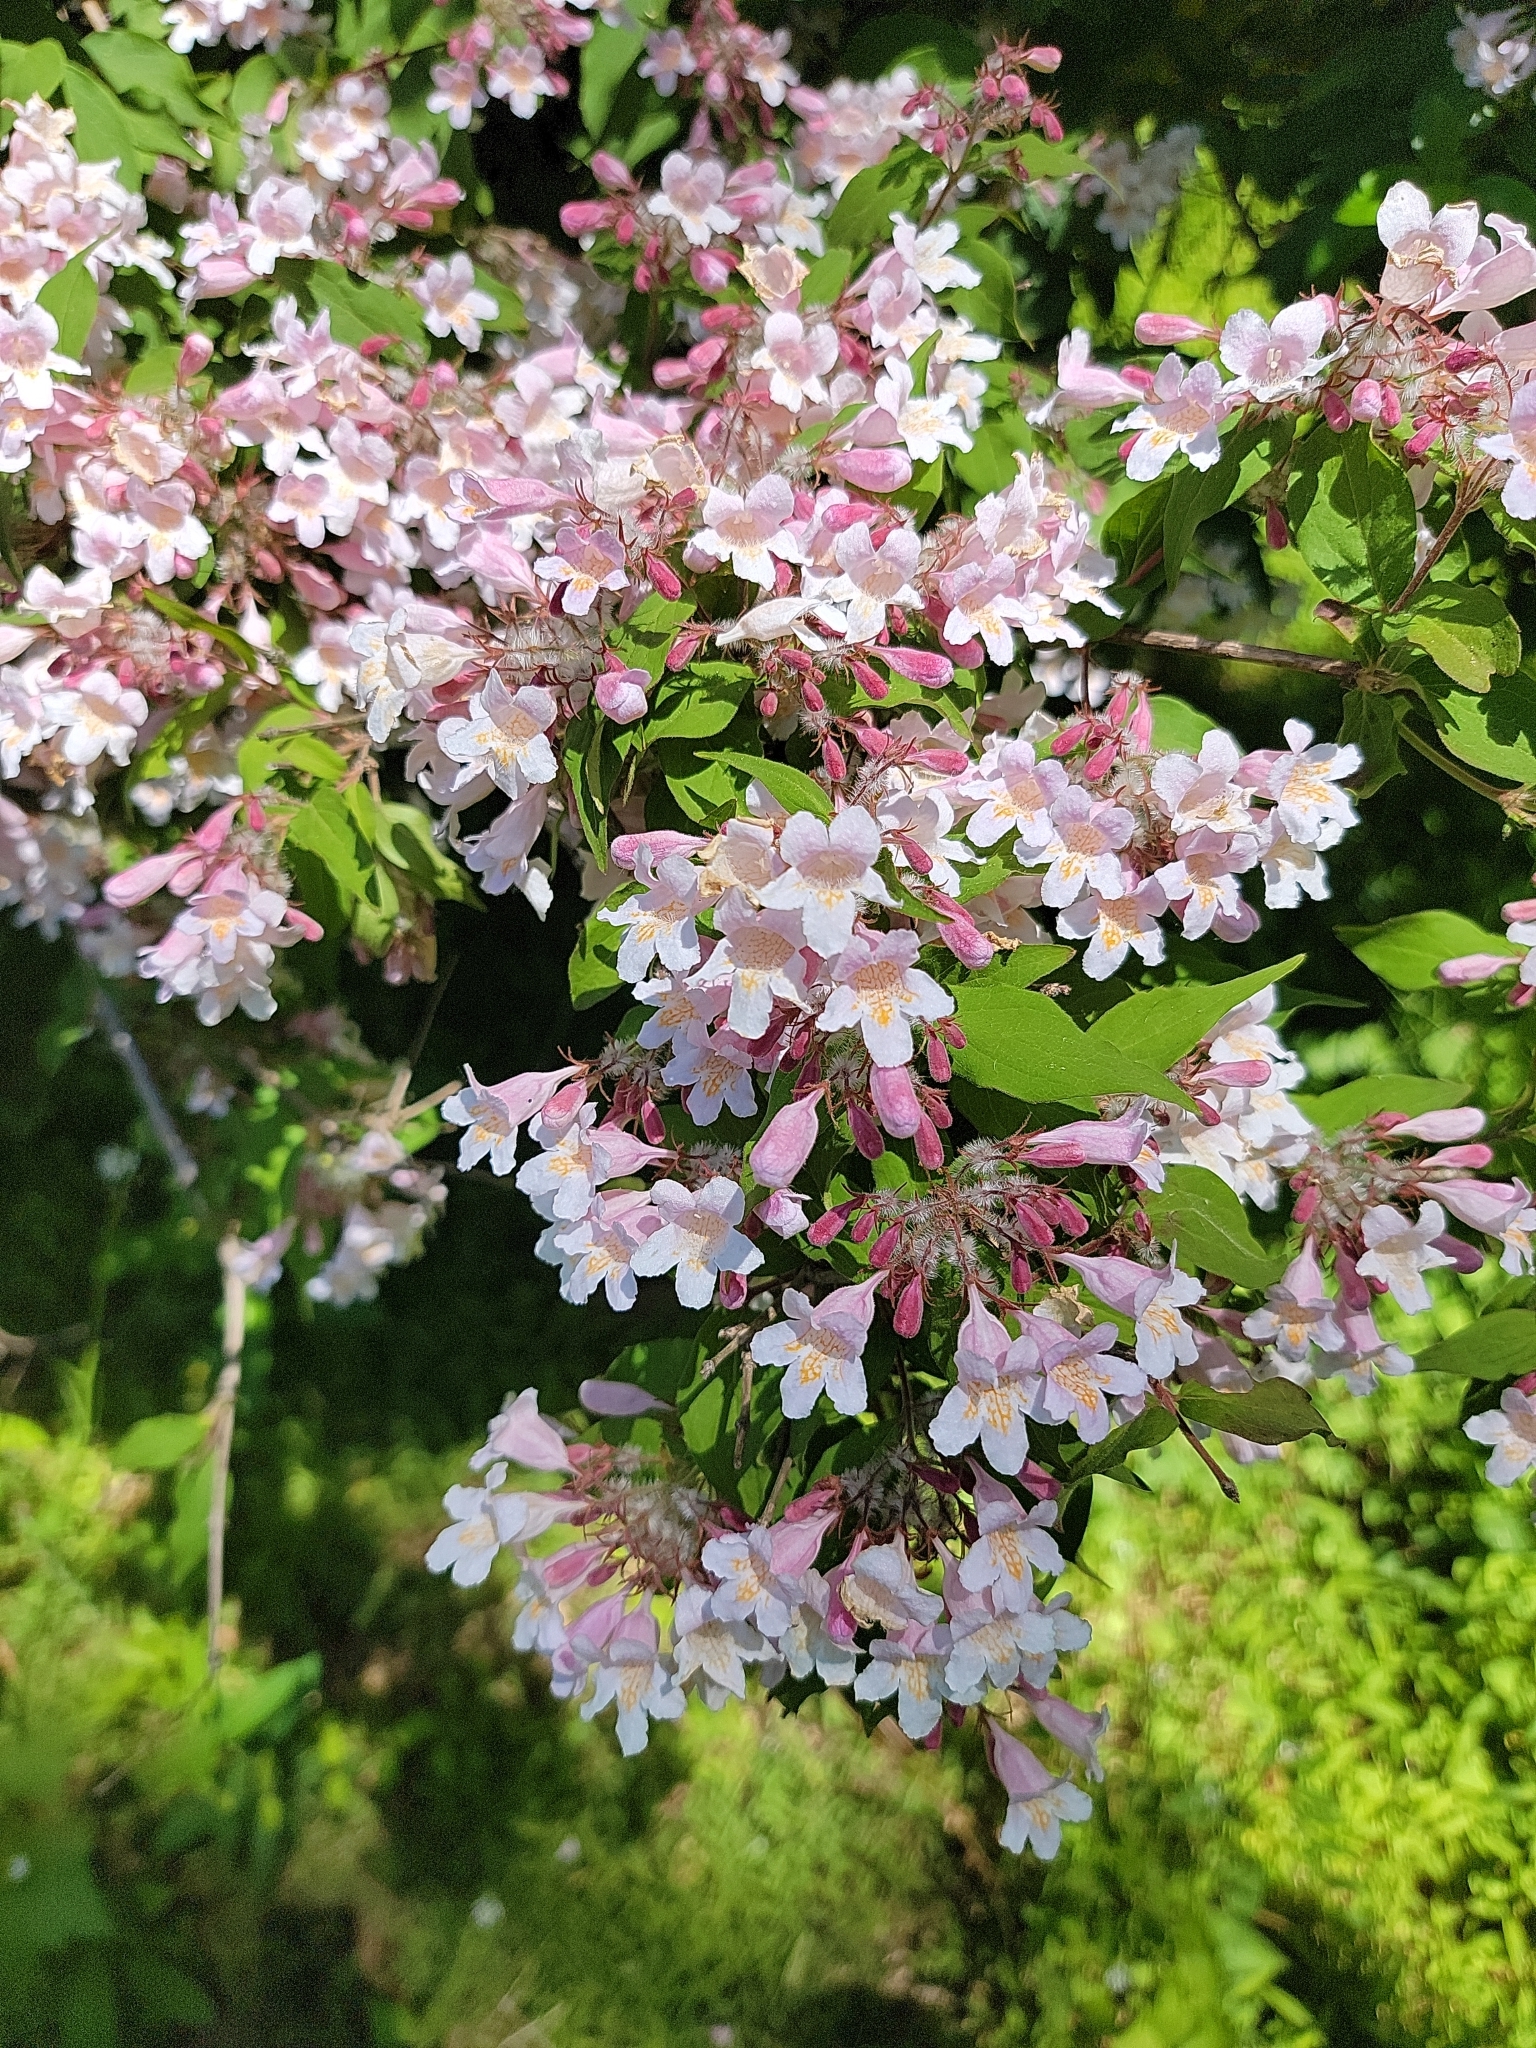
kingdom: Plantae
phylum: Tracheophyta
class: Magnoliopsida
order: Dipsacales
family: Caprifoliaceae
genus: Kolkwitzia
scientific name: Kolkwitzia amabilis
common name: Beautybush
